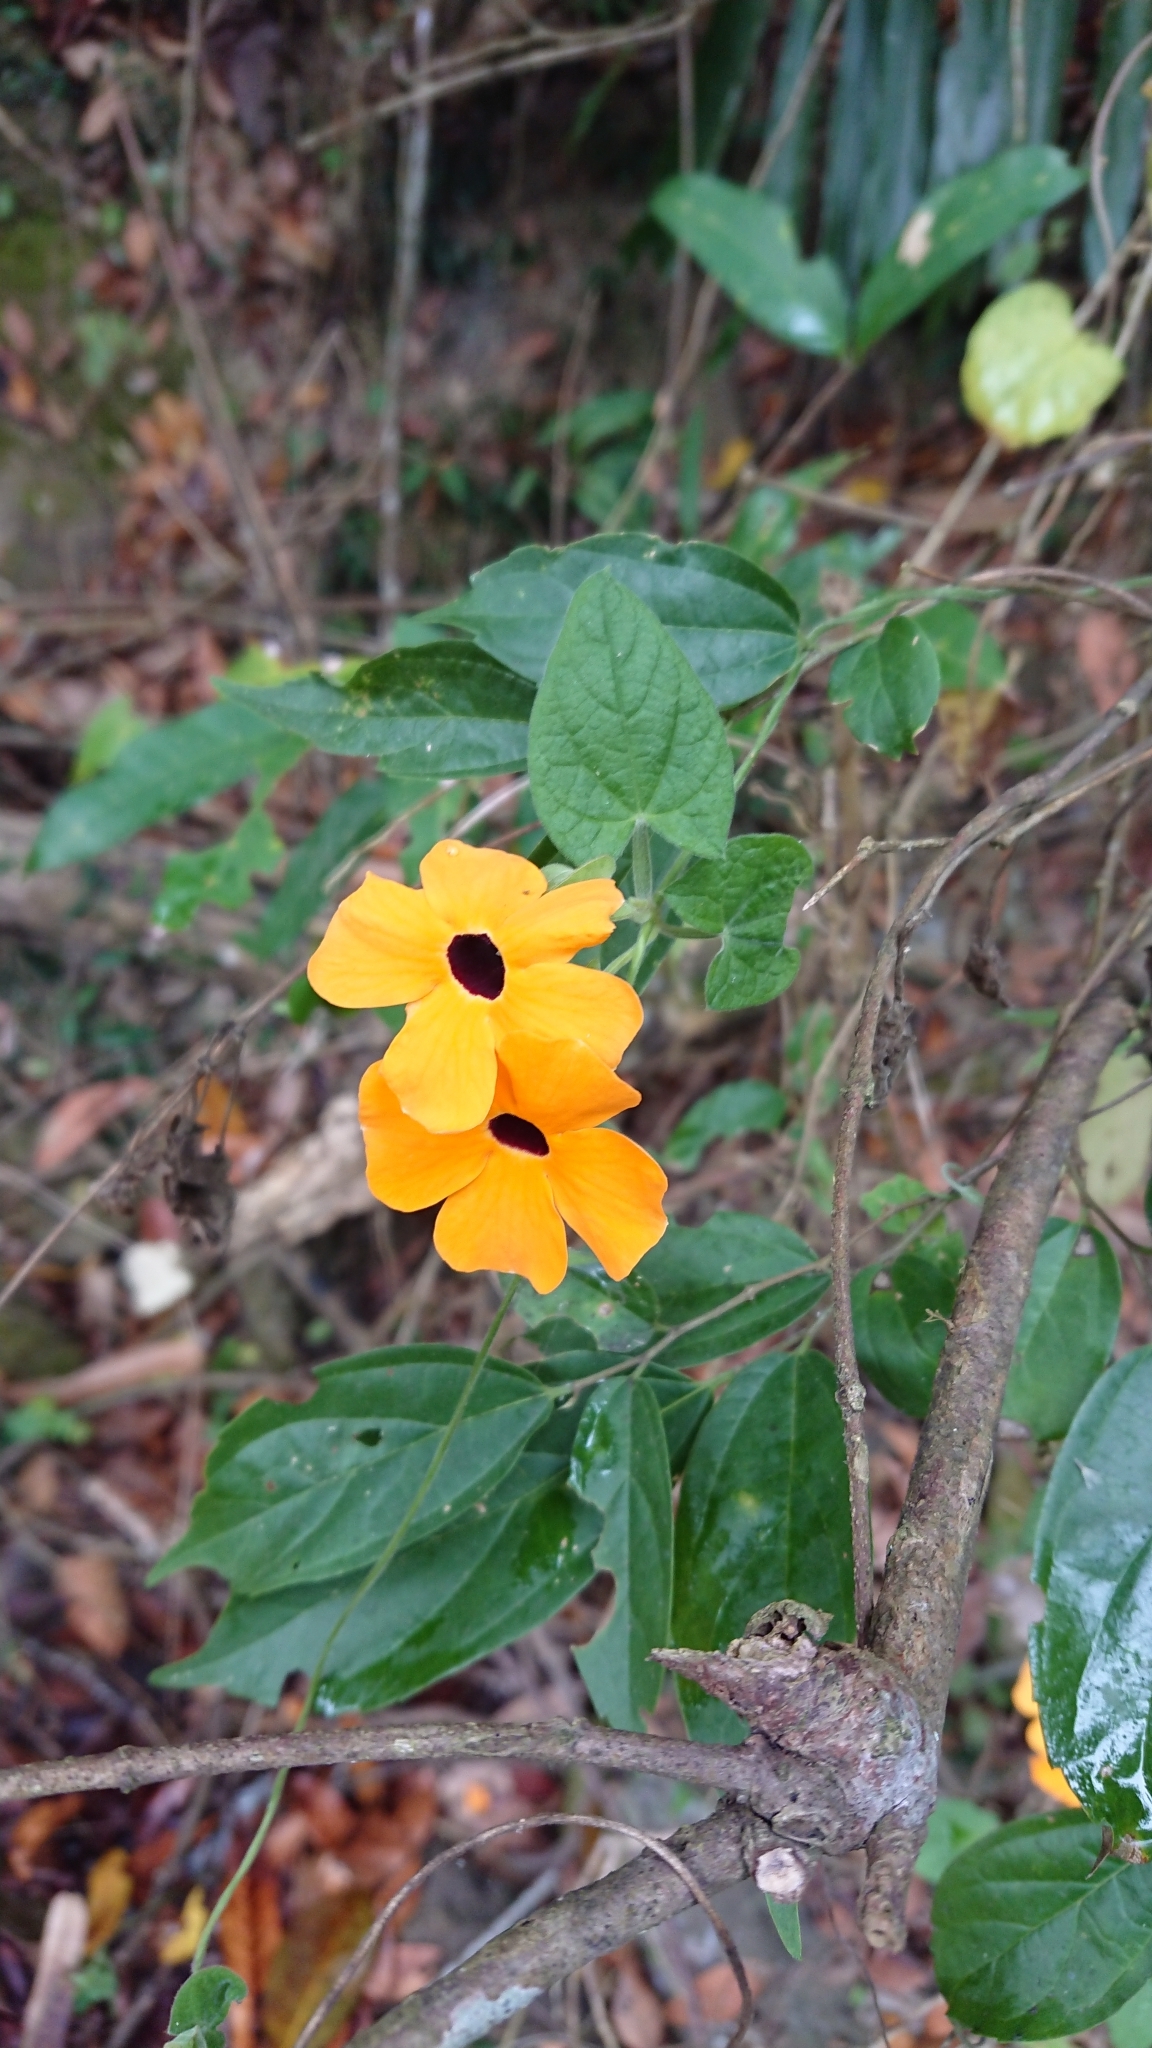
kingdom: Plantae
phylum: Tracheophyta
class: Magnoliopsida
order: Lamiales
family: Acanthaceae
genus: Thunbergia
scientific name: Thunbergia alata
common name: Blackeyed susan vine
